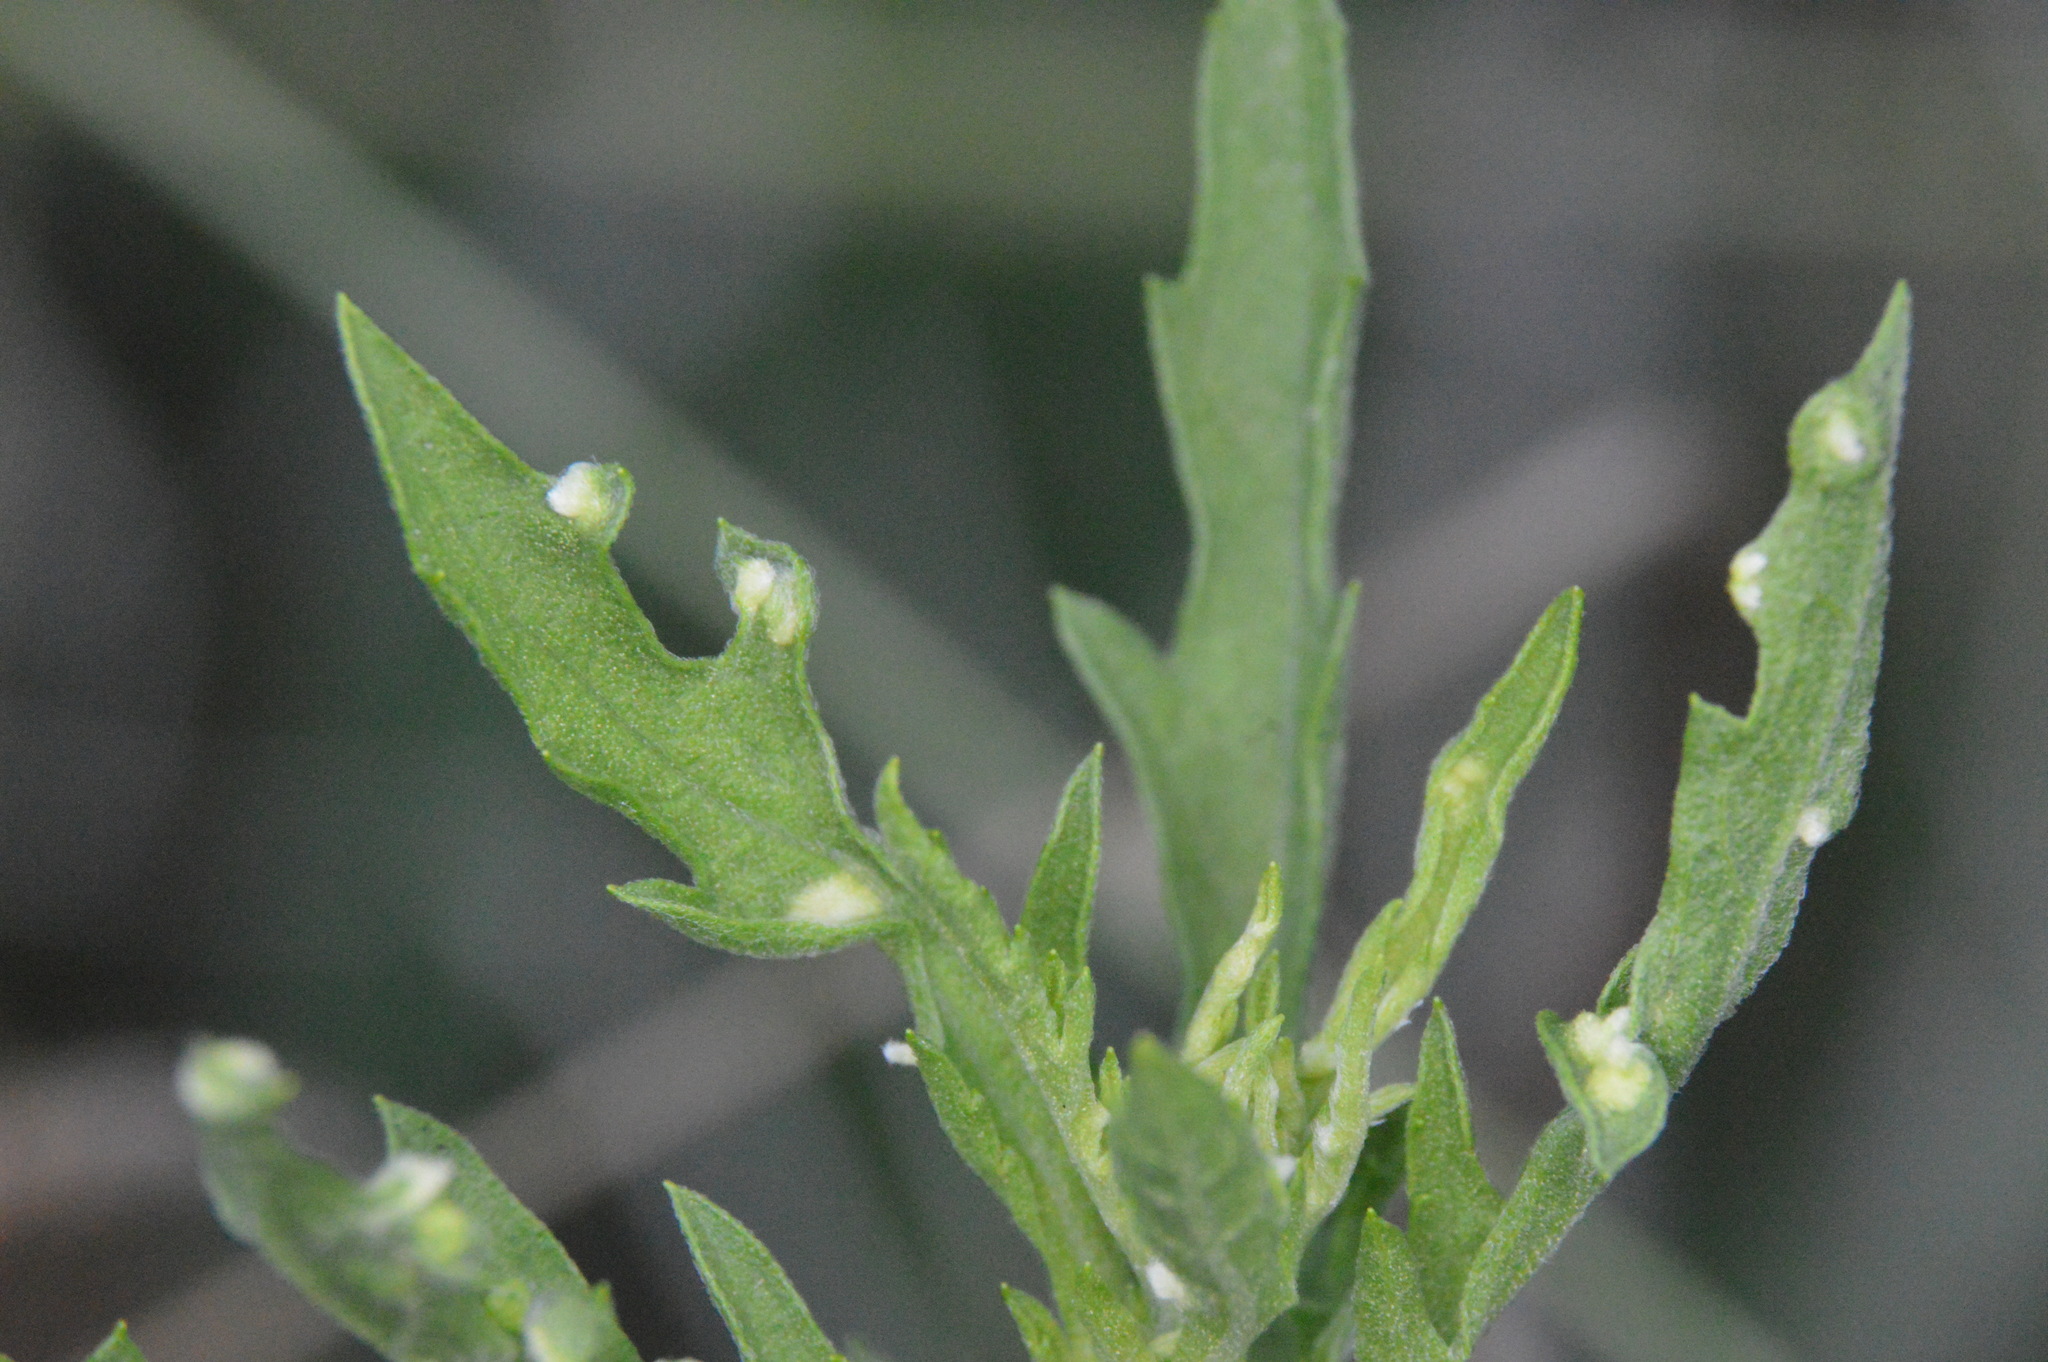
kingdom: Animalia
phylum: Arthropoda
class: Arachnida
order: Trombidiformes
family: Eriophyidae
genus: Aceria
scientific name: Aceria
